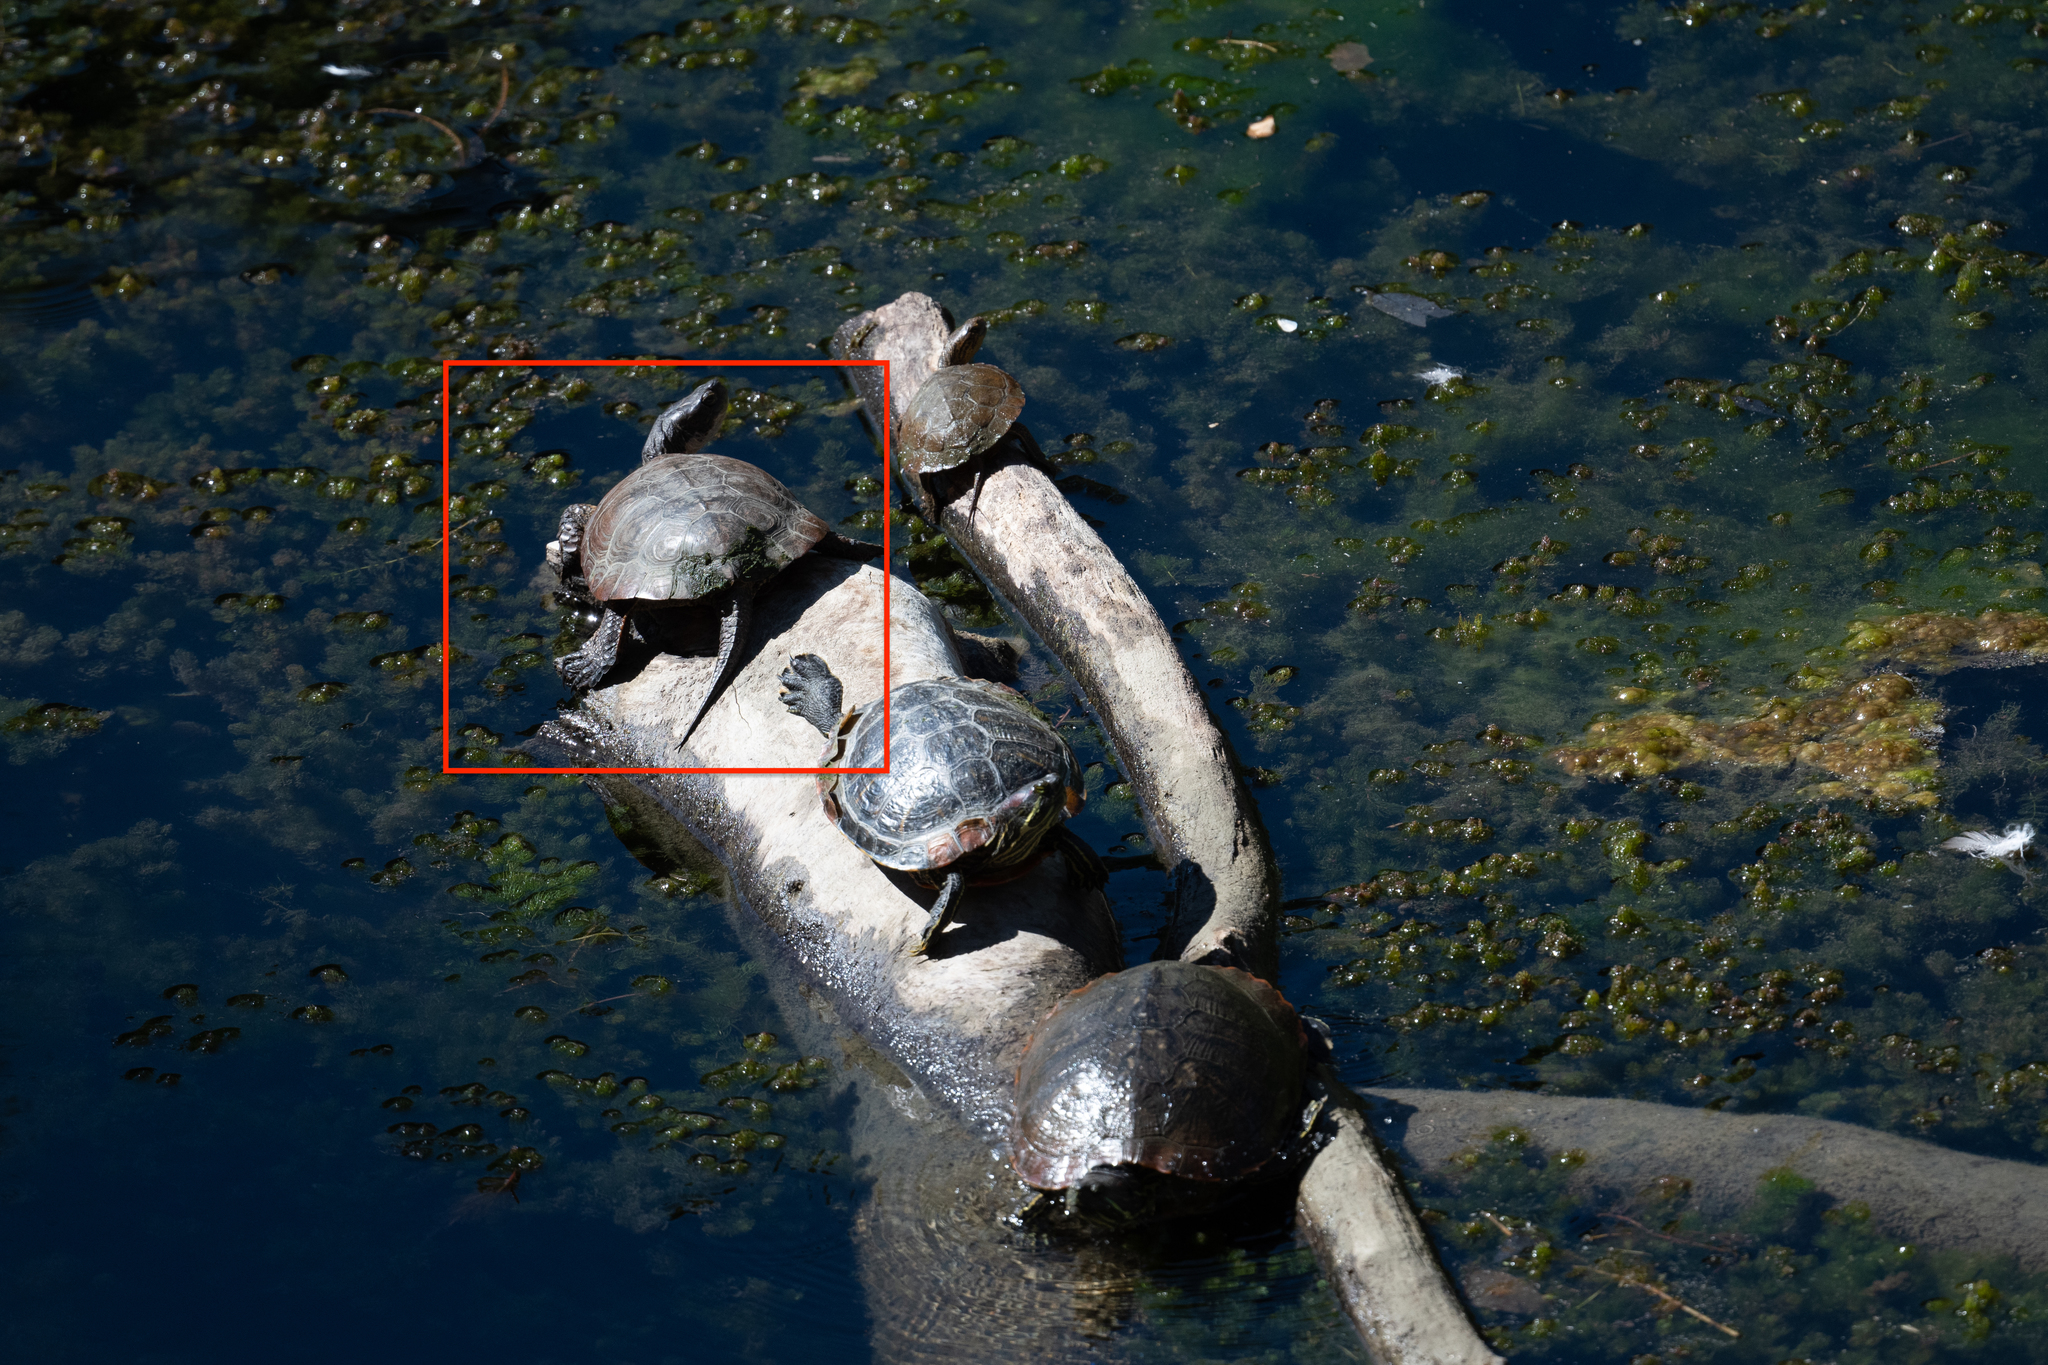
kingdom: Animalia
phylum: Chordata
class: Testudines
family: Emydidae
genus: Actinemys
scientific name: Actinemys marmorata
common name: Western pond turtle
